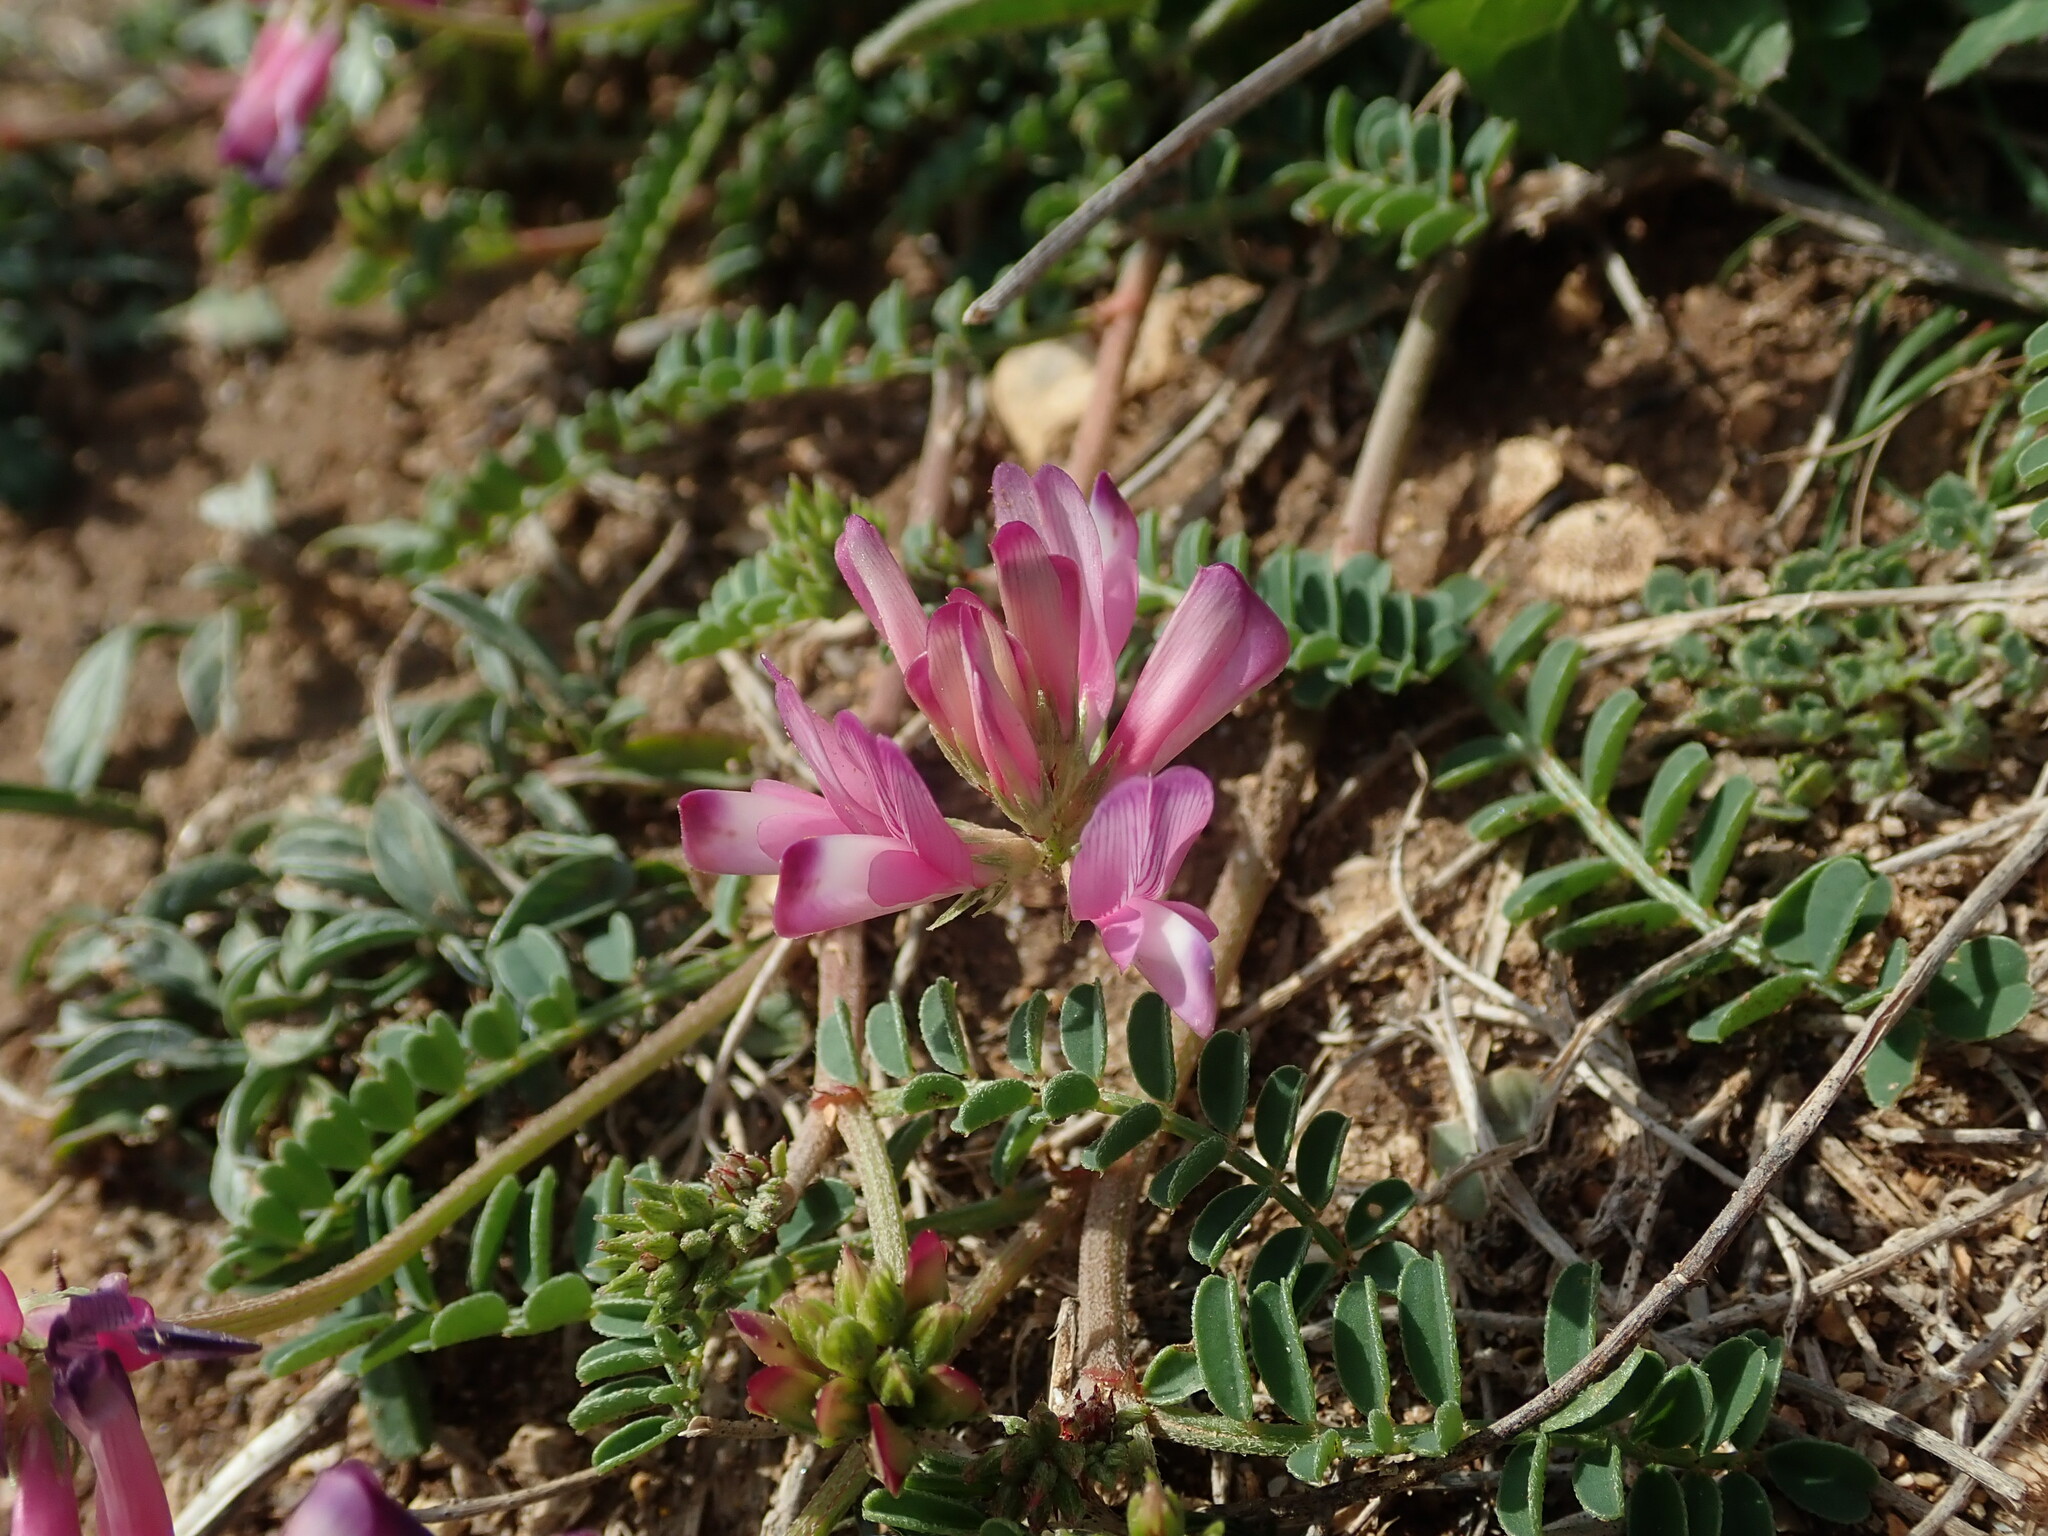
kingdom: Plantae
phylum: Tracheophyta
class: Magnoliopsida
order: Fabales
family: Fabaceae
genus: Sulla
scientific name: Sulla glomerata
